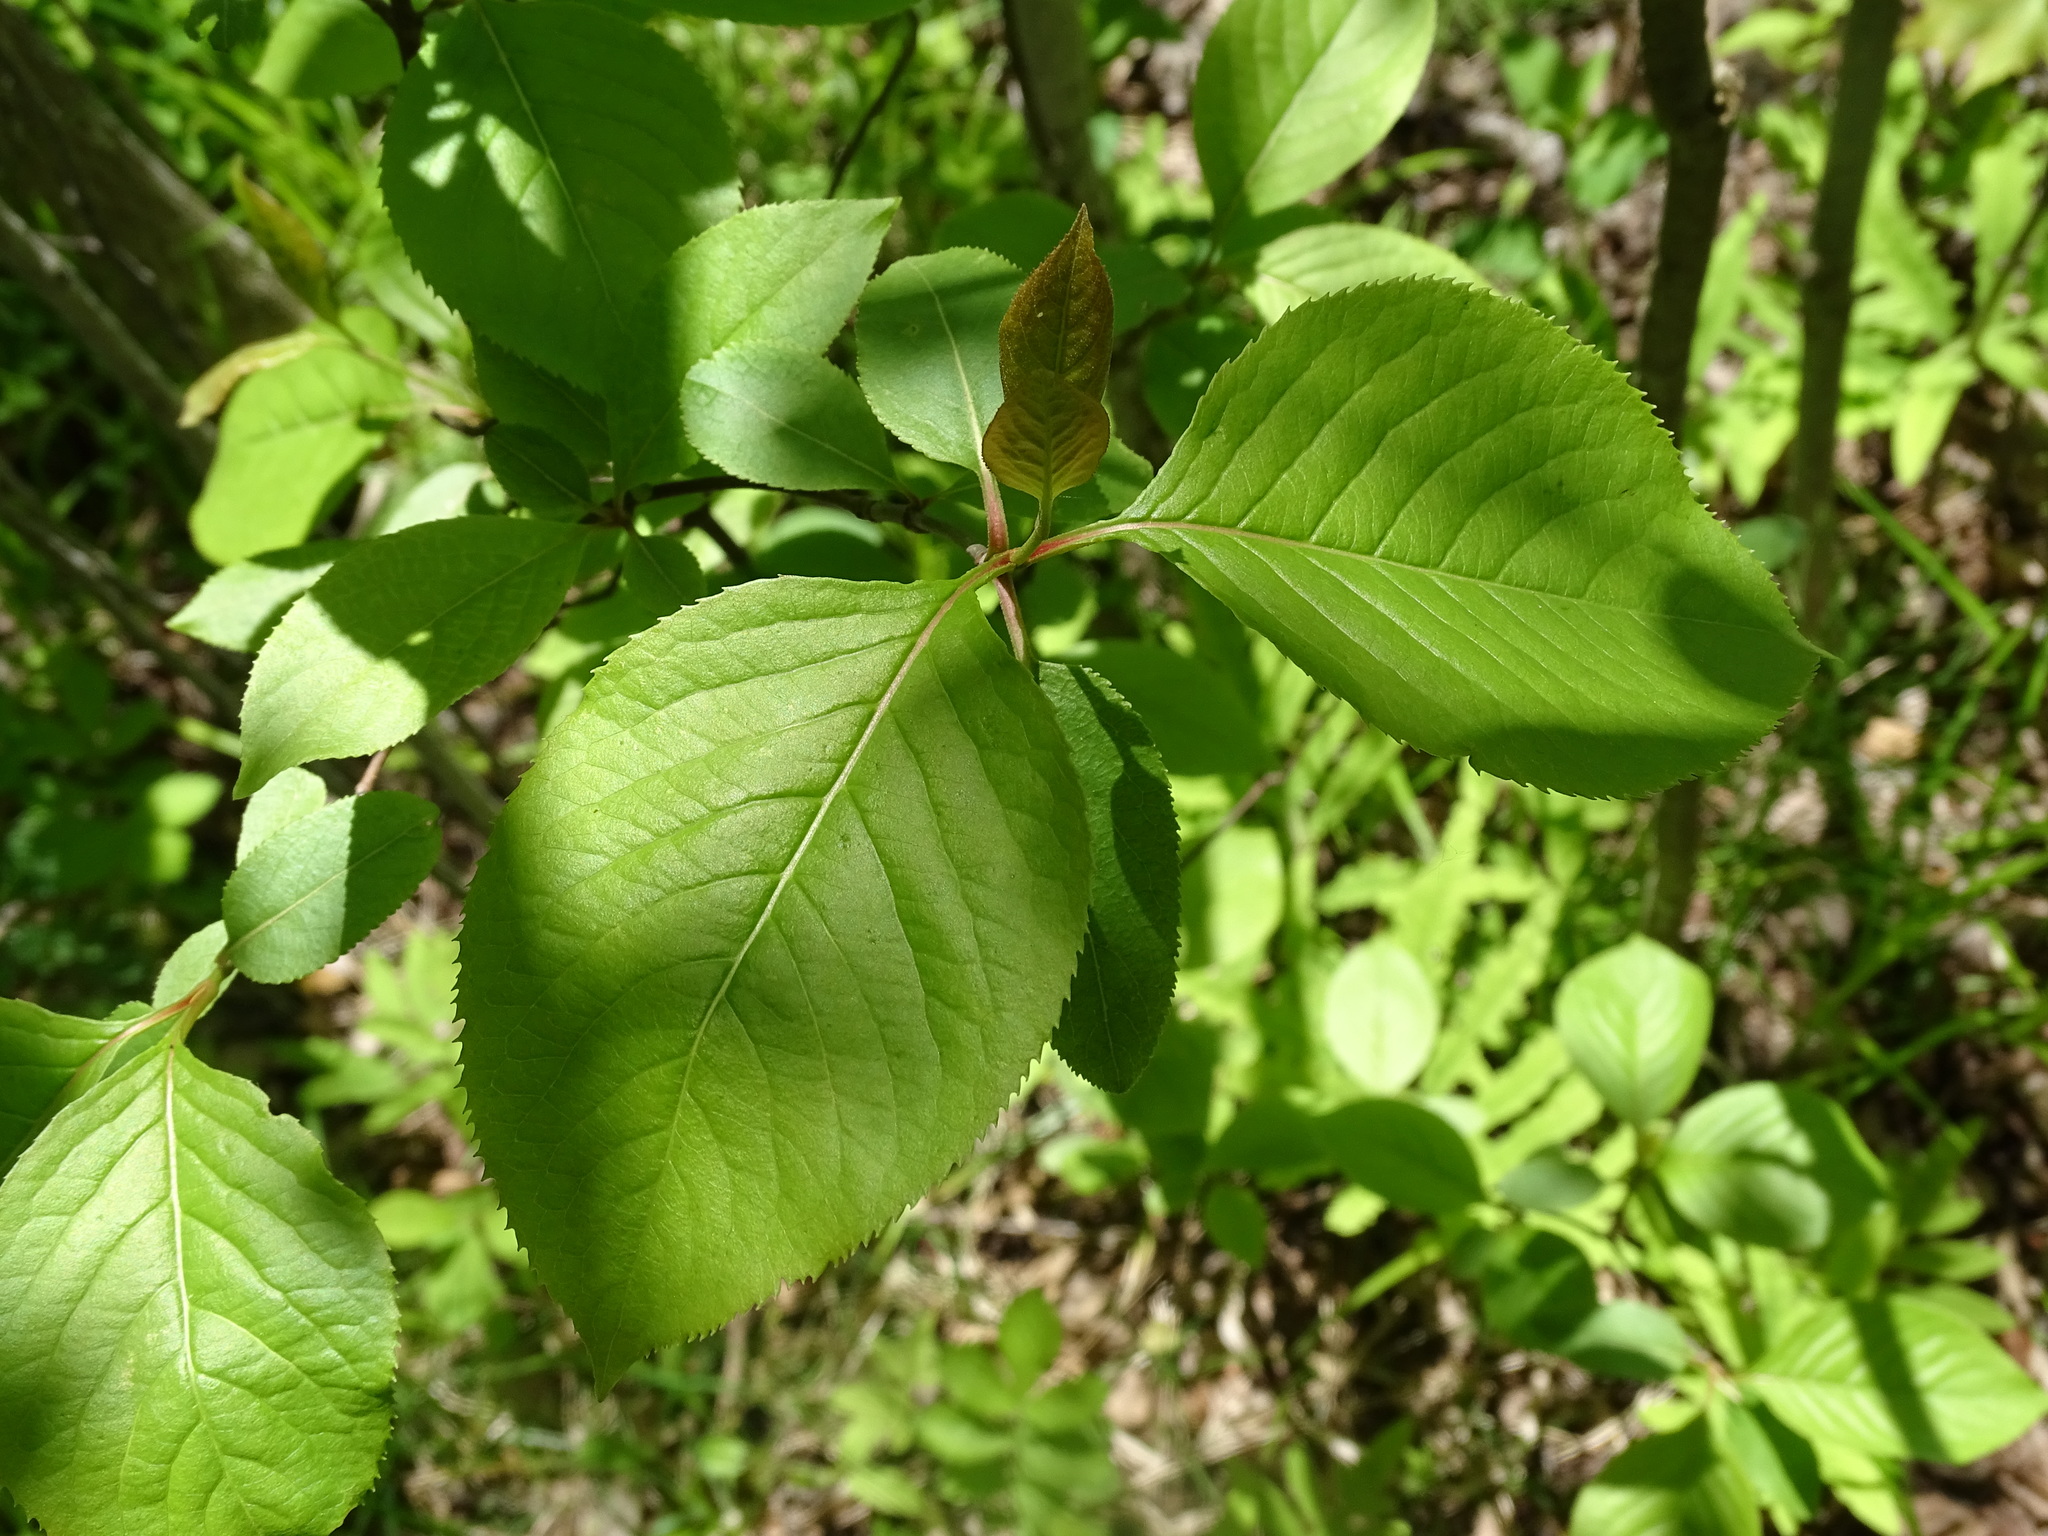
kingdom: Plantae
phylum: Tracheophyta
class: Magnoliopsida
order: Dipsacales
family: Viburnaceae
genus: Viburnum
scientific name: Viburnum lentago
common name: Black haw
